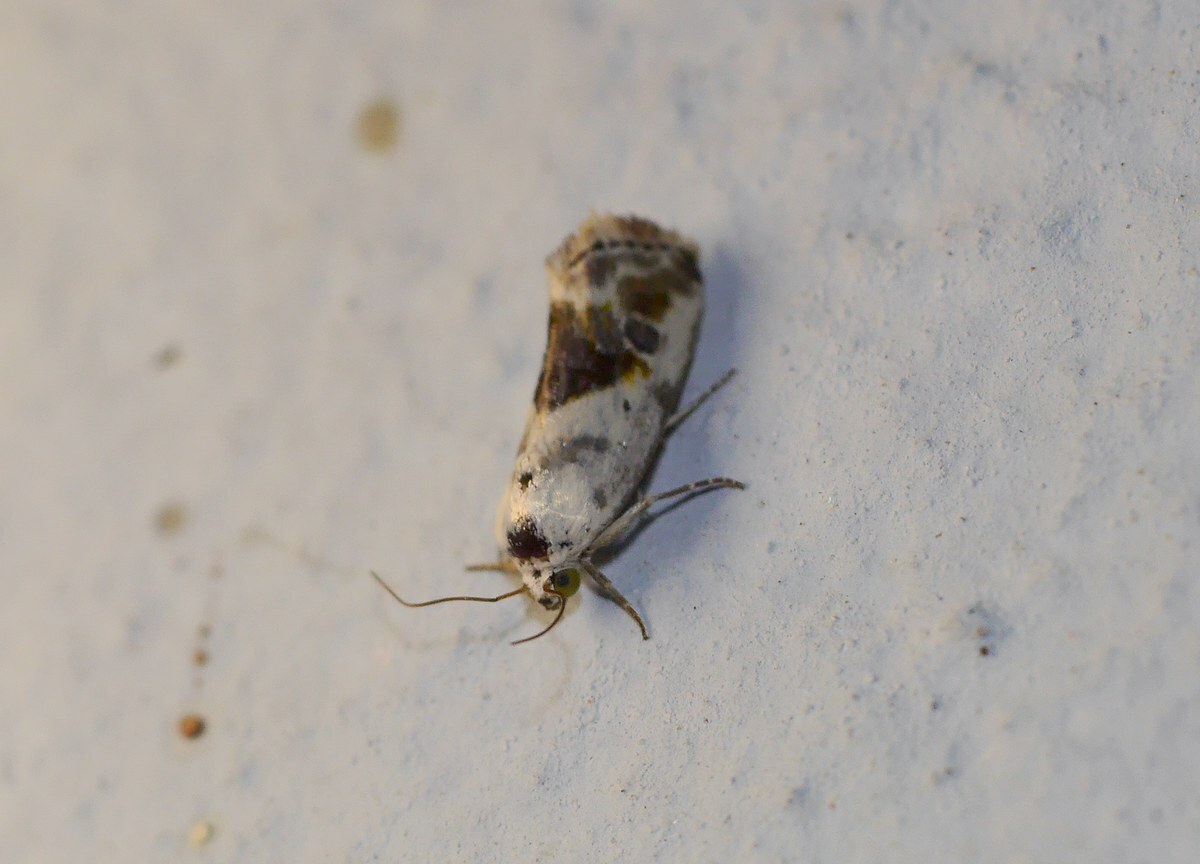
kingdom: Animalia
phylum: Arthropoda
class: Insecta
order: Lepidoptera
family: Noctuidae
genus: Acontia
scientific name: Acontia candefacta
